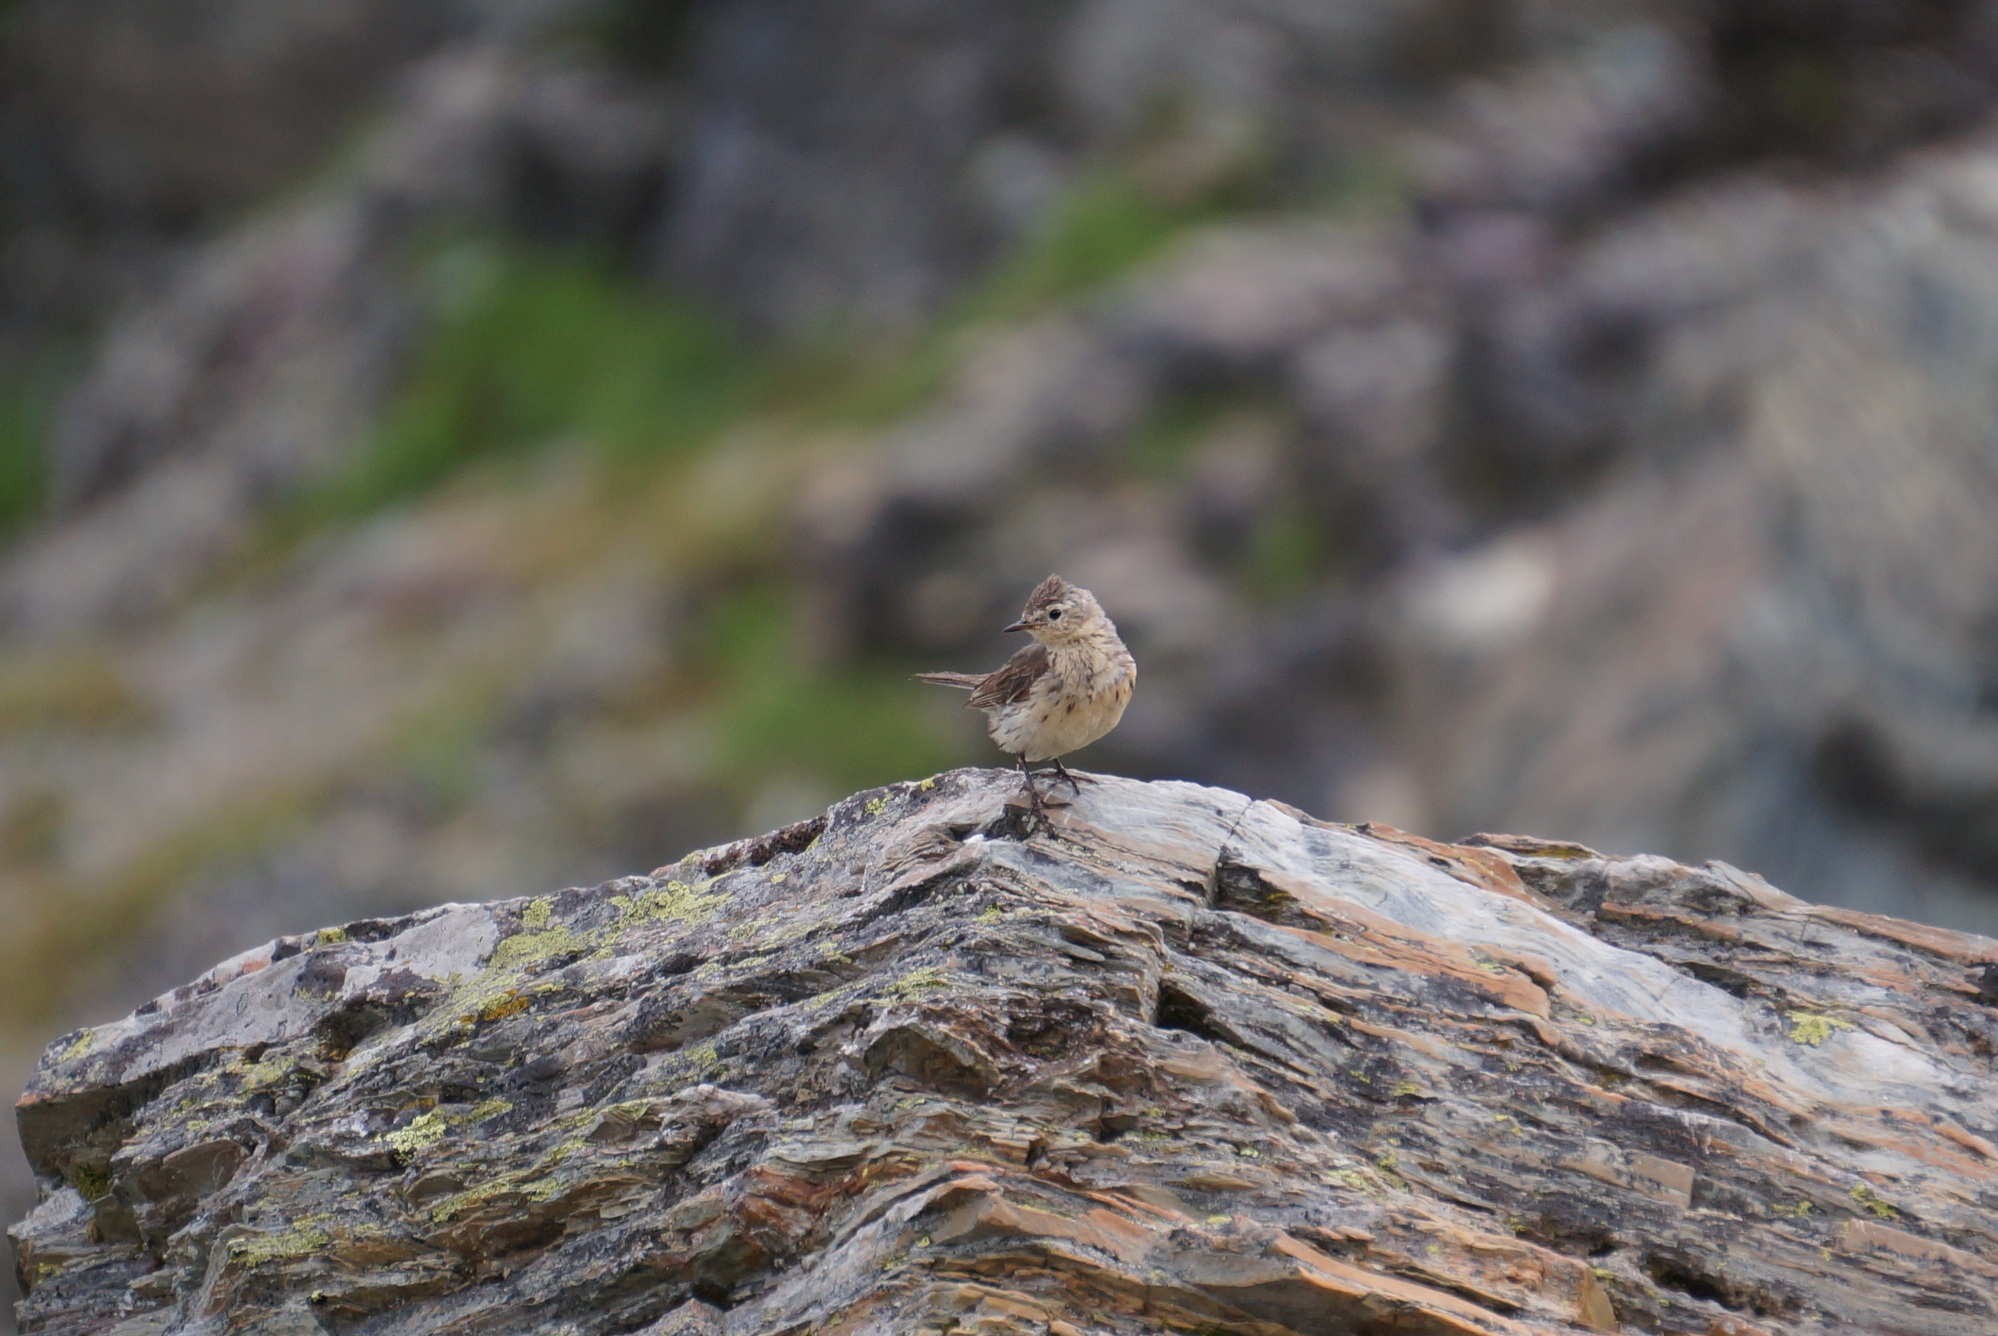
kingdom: Animalia
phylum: Chordata
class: Aves
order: Passeriformes
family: Motacillidae
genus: Anthus
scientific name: Anthus rubescens
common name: Buff-bellied pipit
